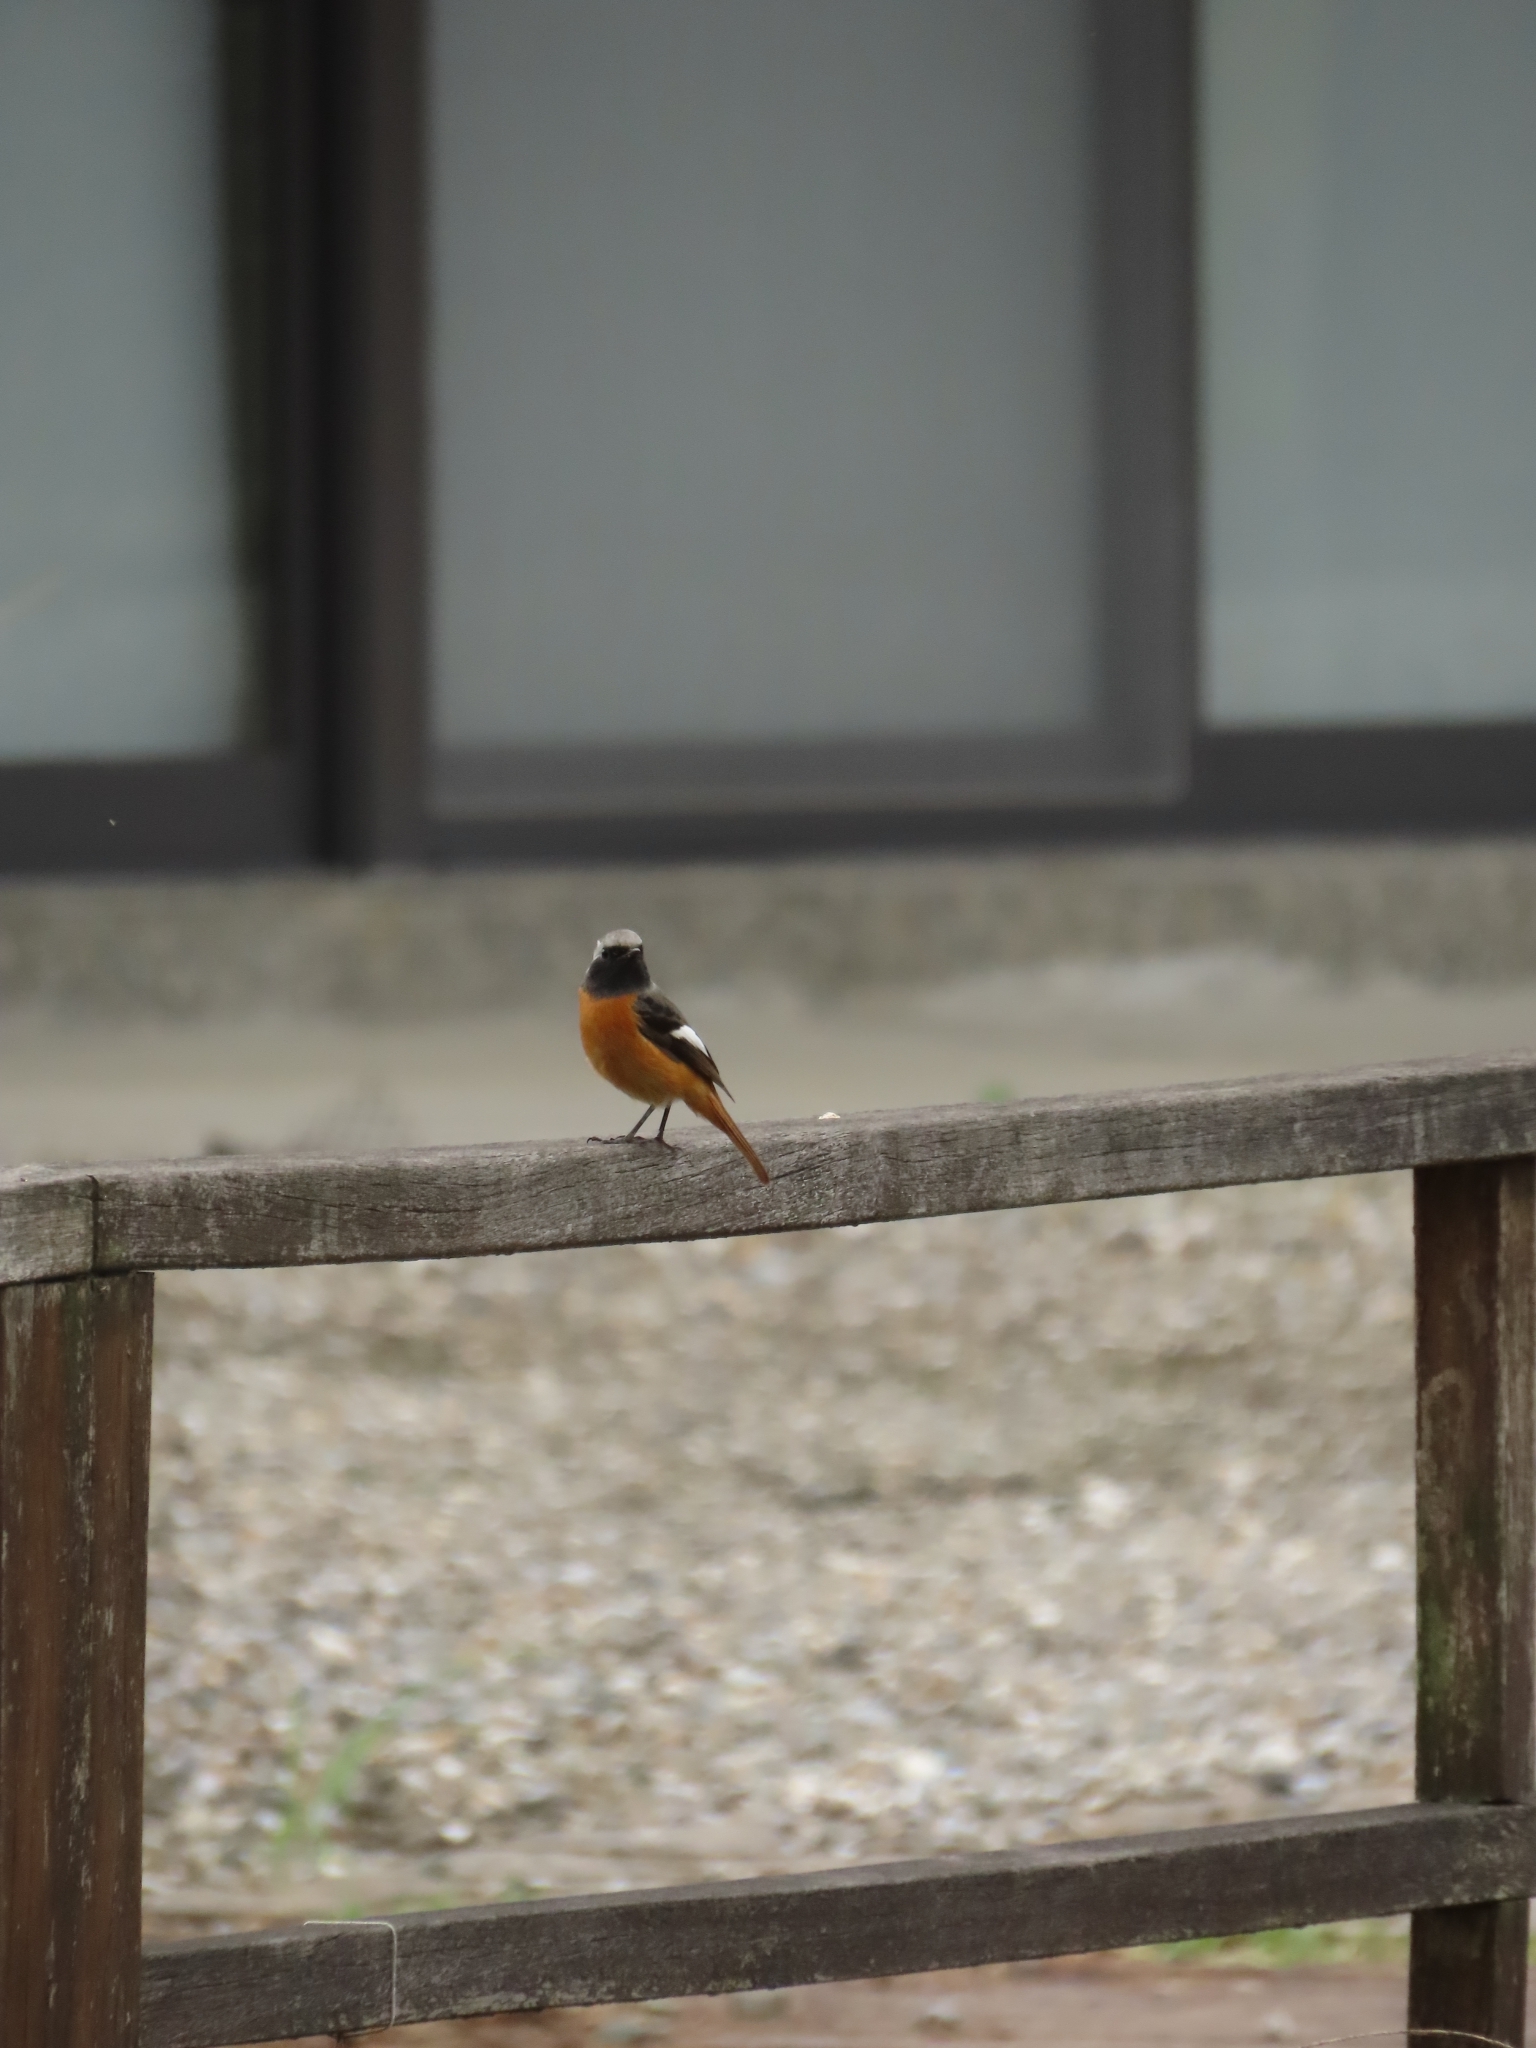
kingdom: Animalia
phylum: Chordata
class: Aves
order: Passeriformes
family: Muscicapidae
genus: Phoenicurus
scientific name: Phoenicurus auroreus
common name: Daurian redstart
